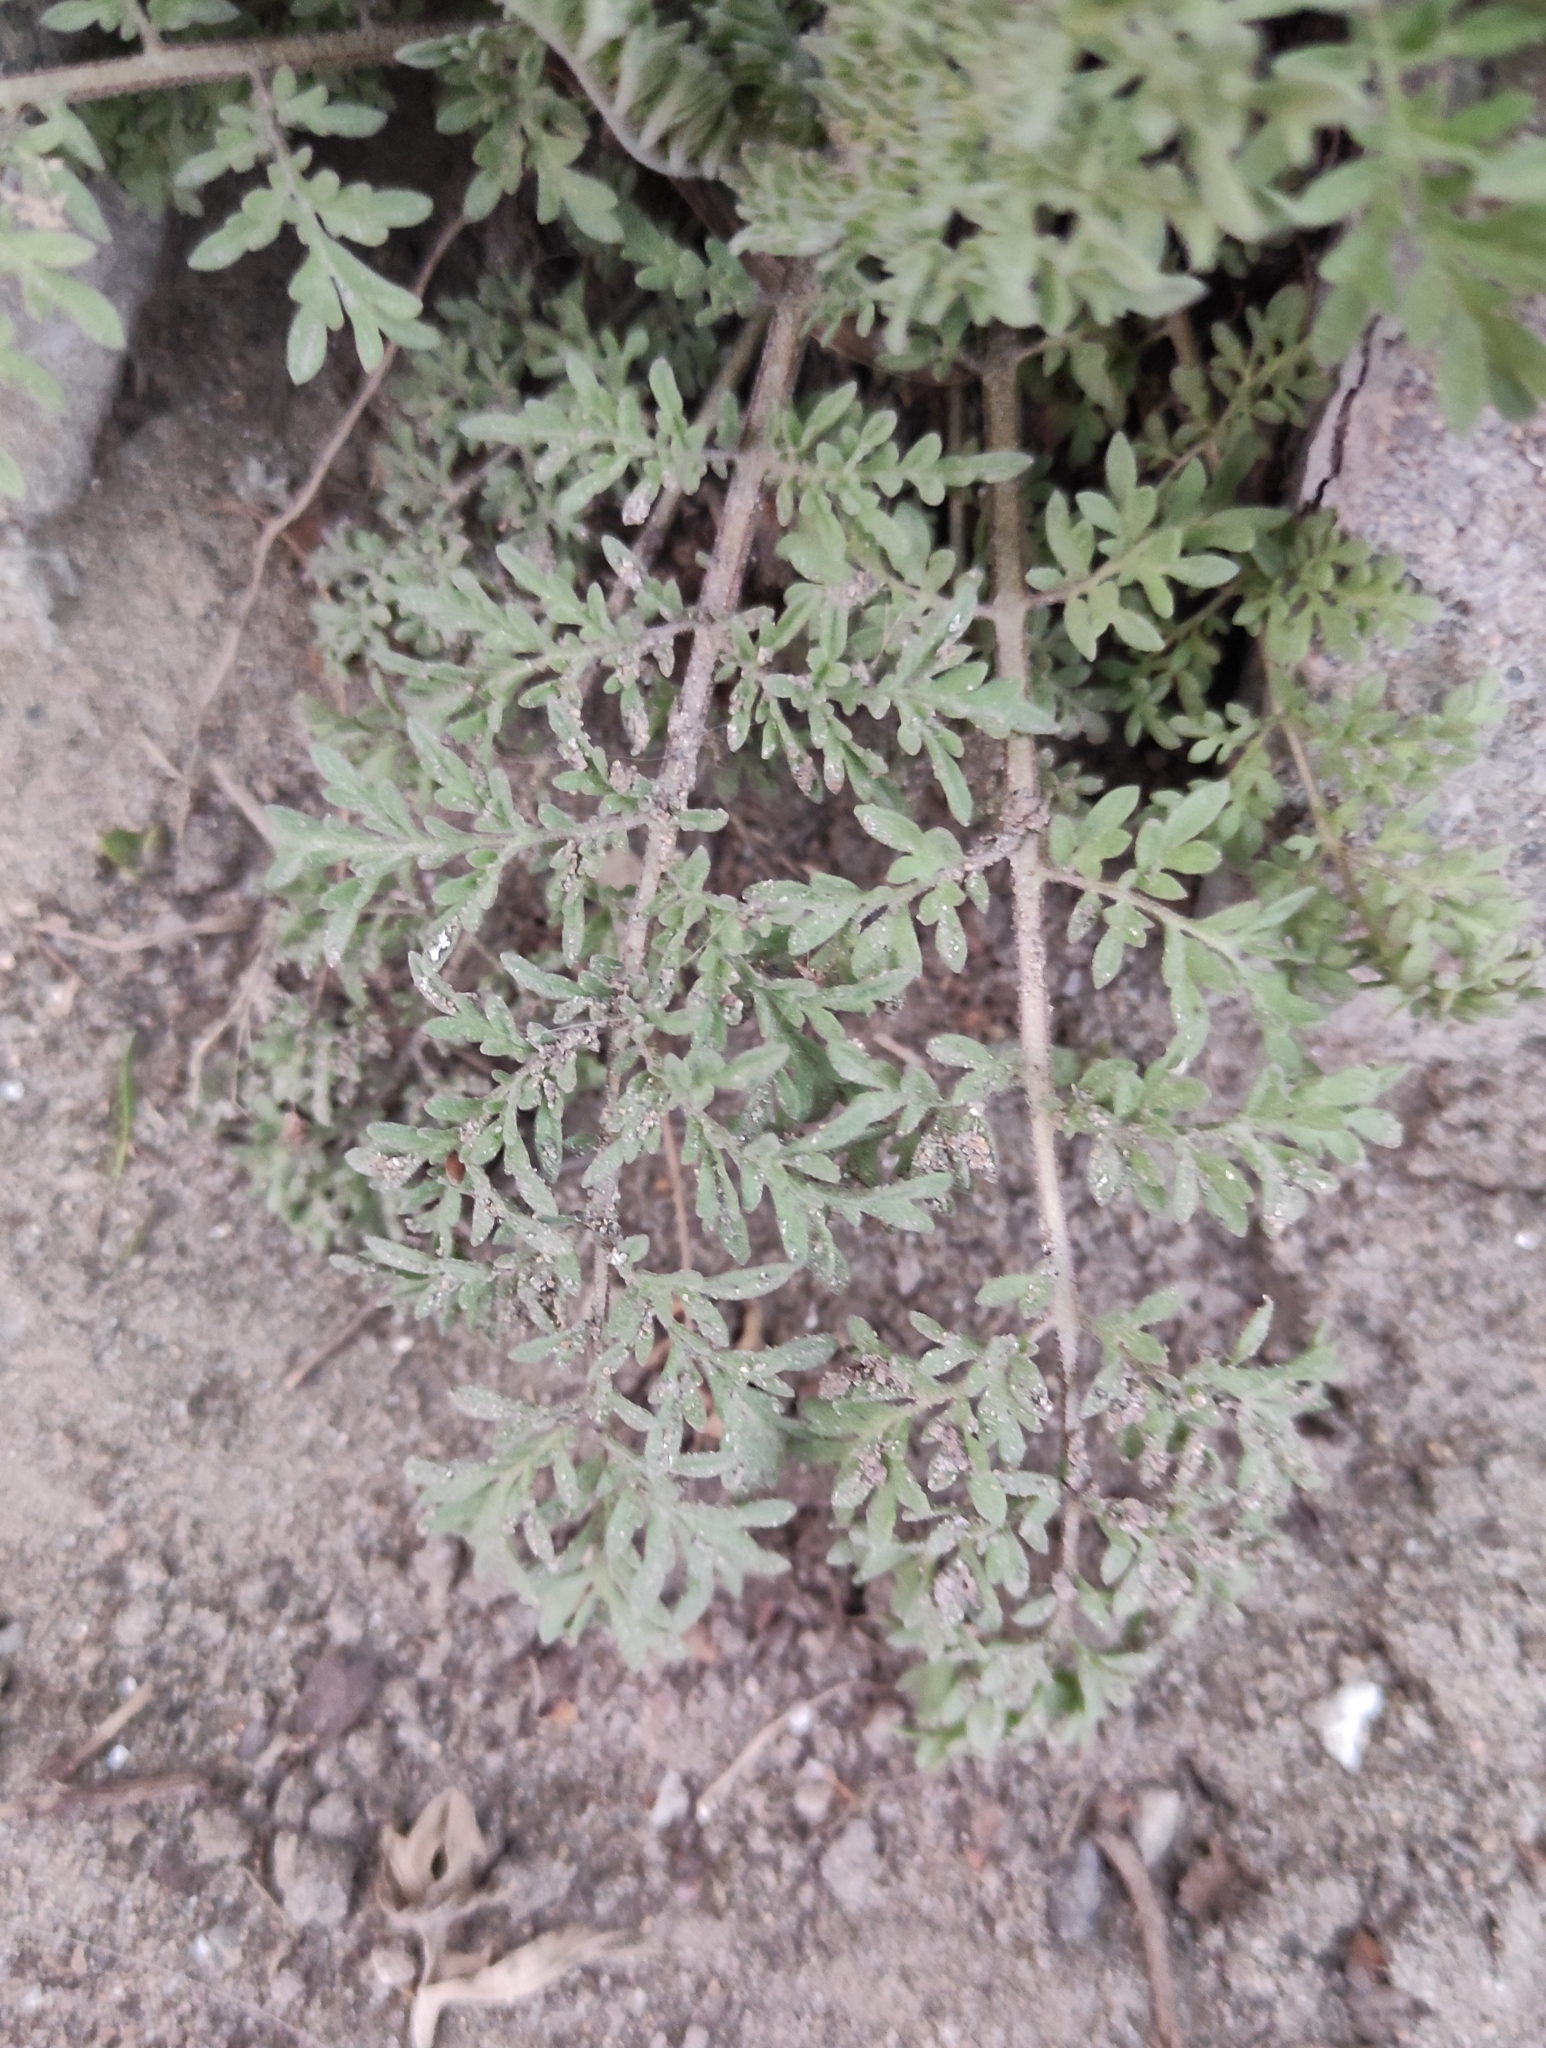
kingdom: Plantae
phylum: Tracheophyta
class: Magnoliopsida
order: Brassicales
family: Brassicaceae
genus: Descurainia
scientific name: Descurainia sophia
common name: Flixweed
